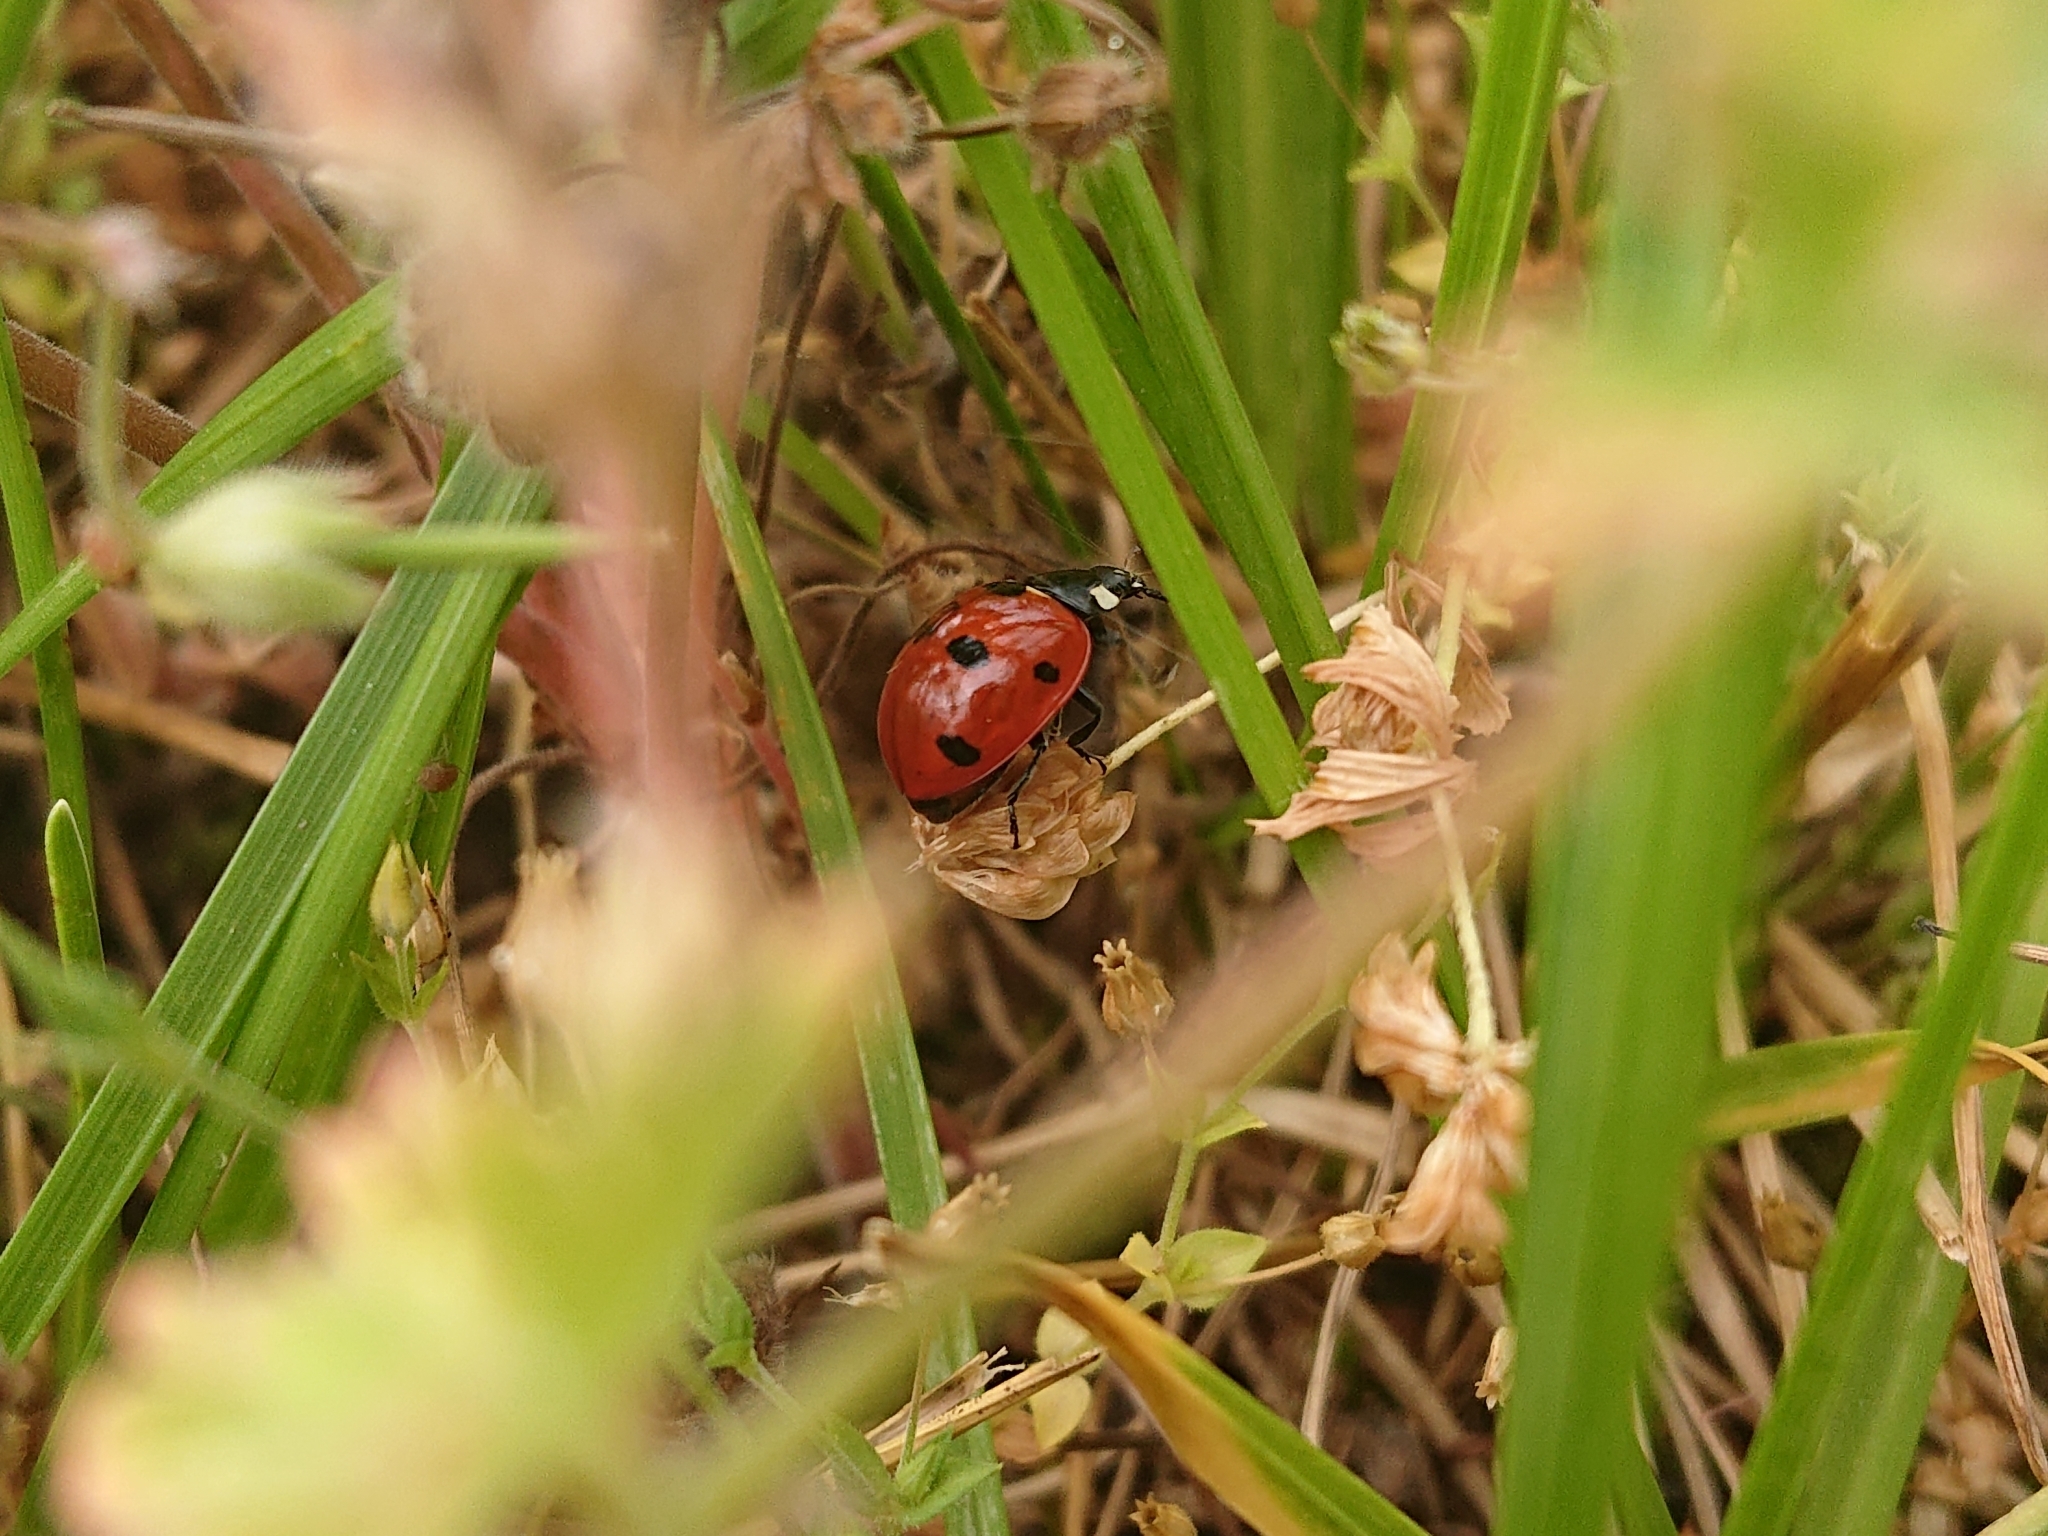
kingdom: Animalia
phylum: Arthropoda
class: Insecta
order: Coleoptera
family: Coccinellidae
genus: Coccinella
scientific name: Coccinella septempunctata
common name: Sevenspotted lady beetle
